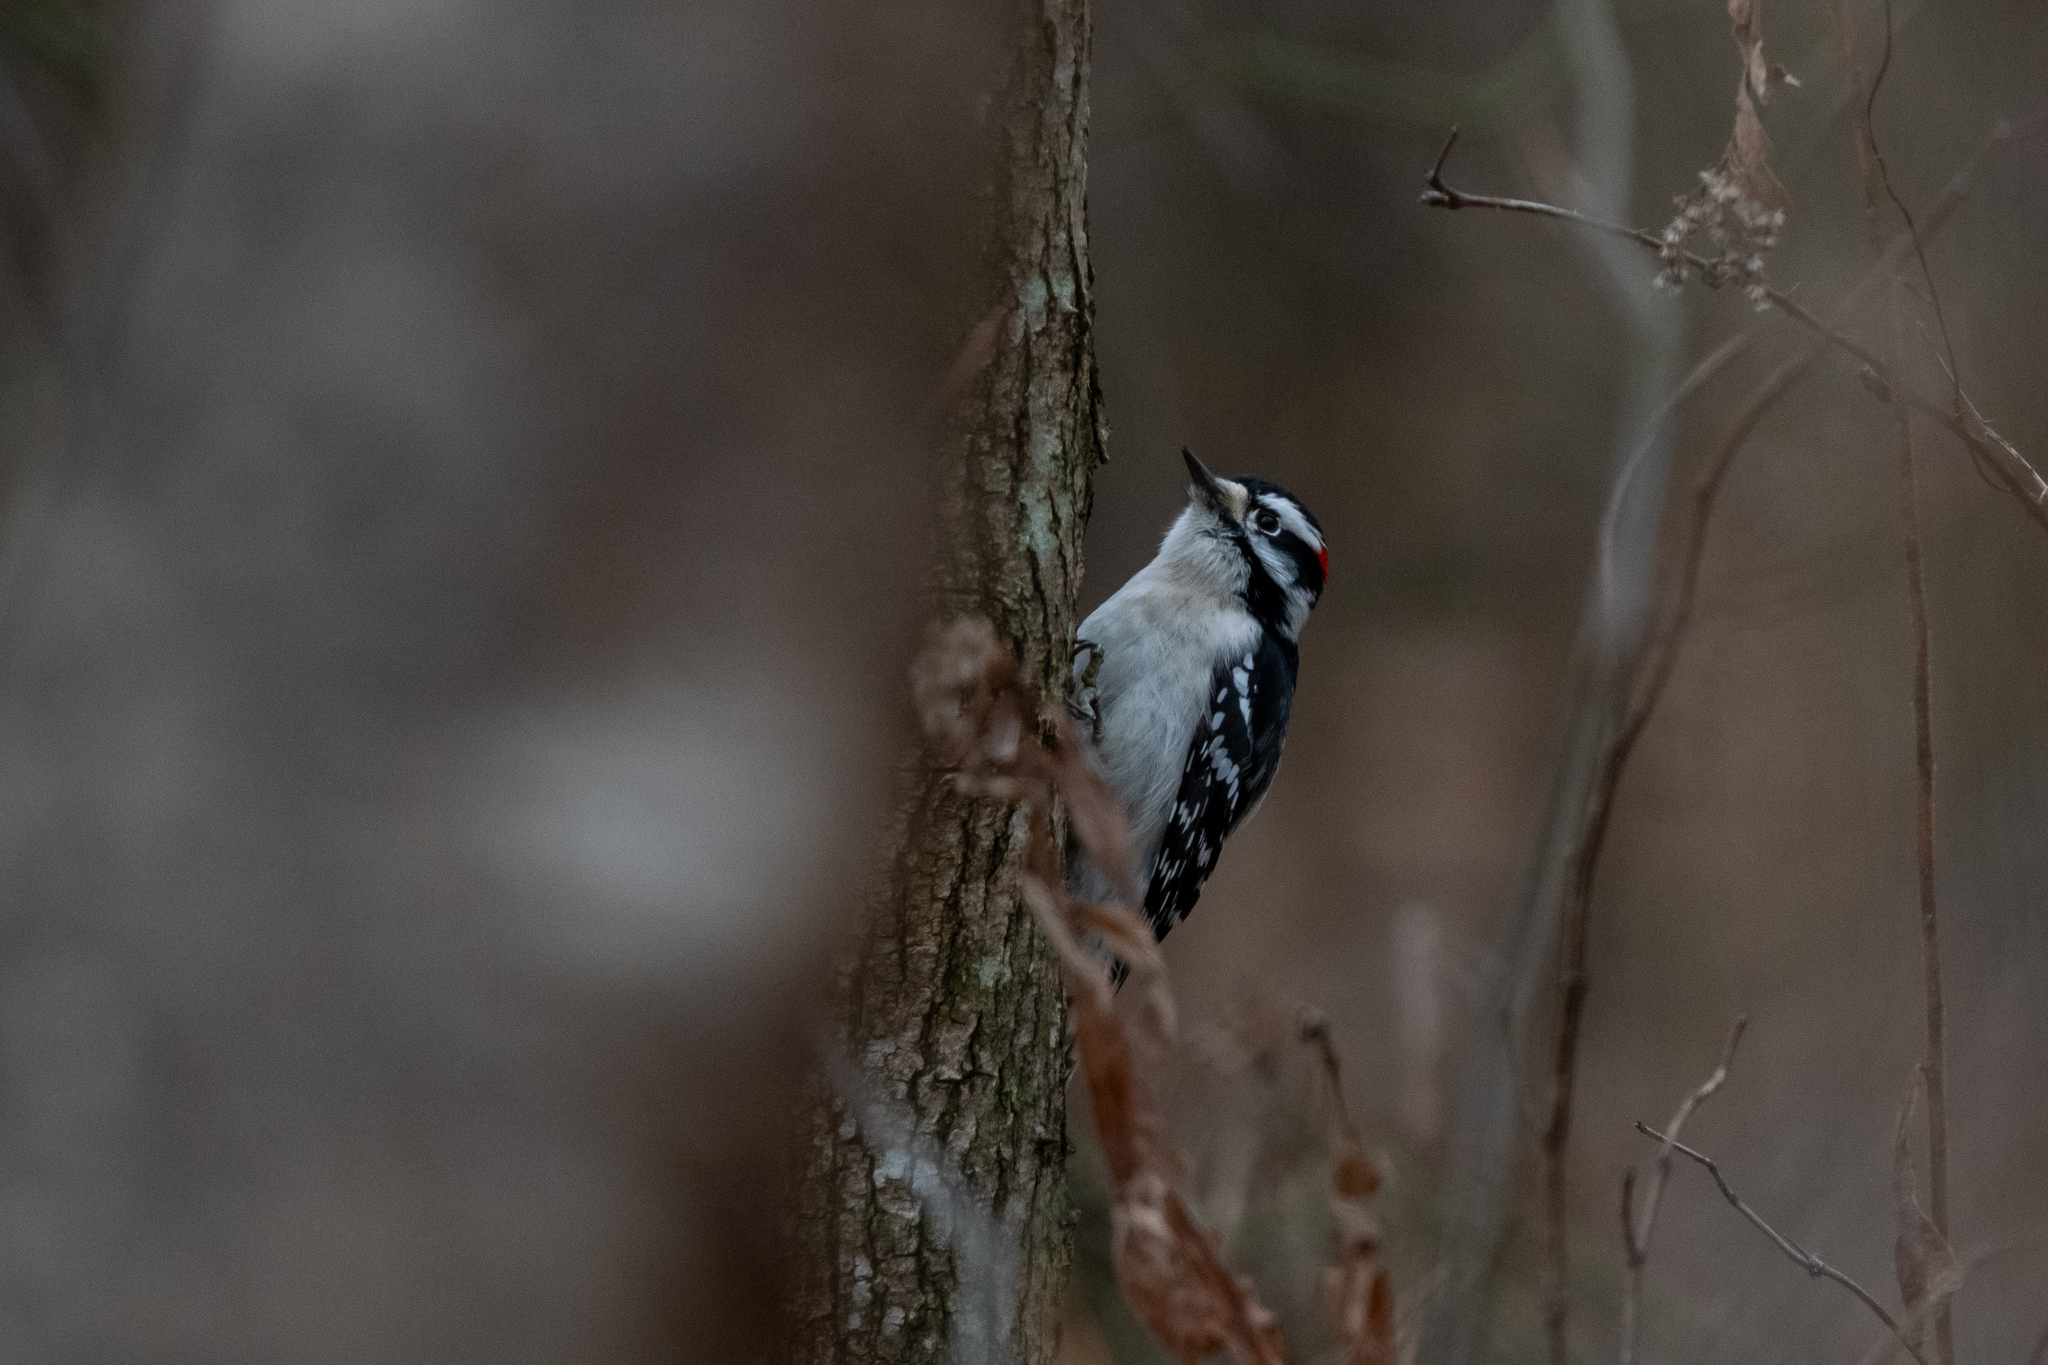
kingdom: Animalia
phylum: Chordata
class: Aves
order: Piciformes
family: Picidae
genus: Dryobates
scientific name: Dryobates pubescens
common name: Downy woodpecker
